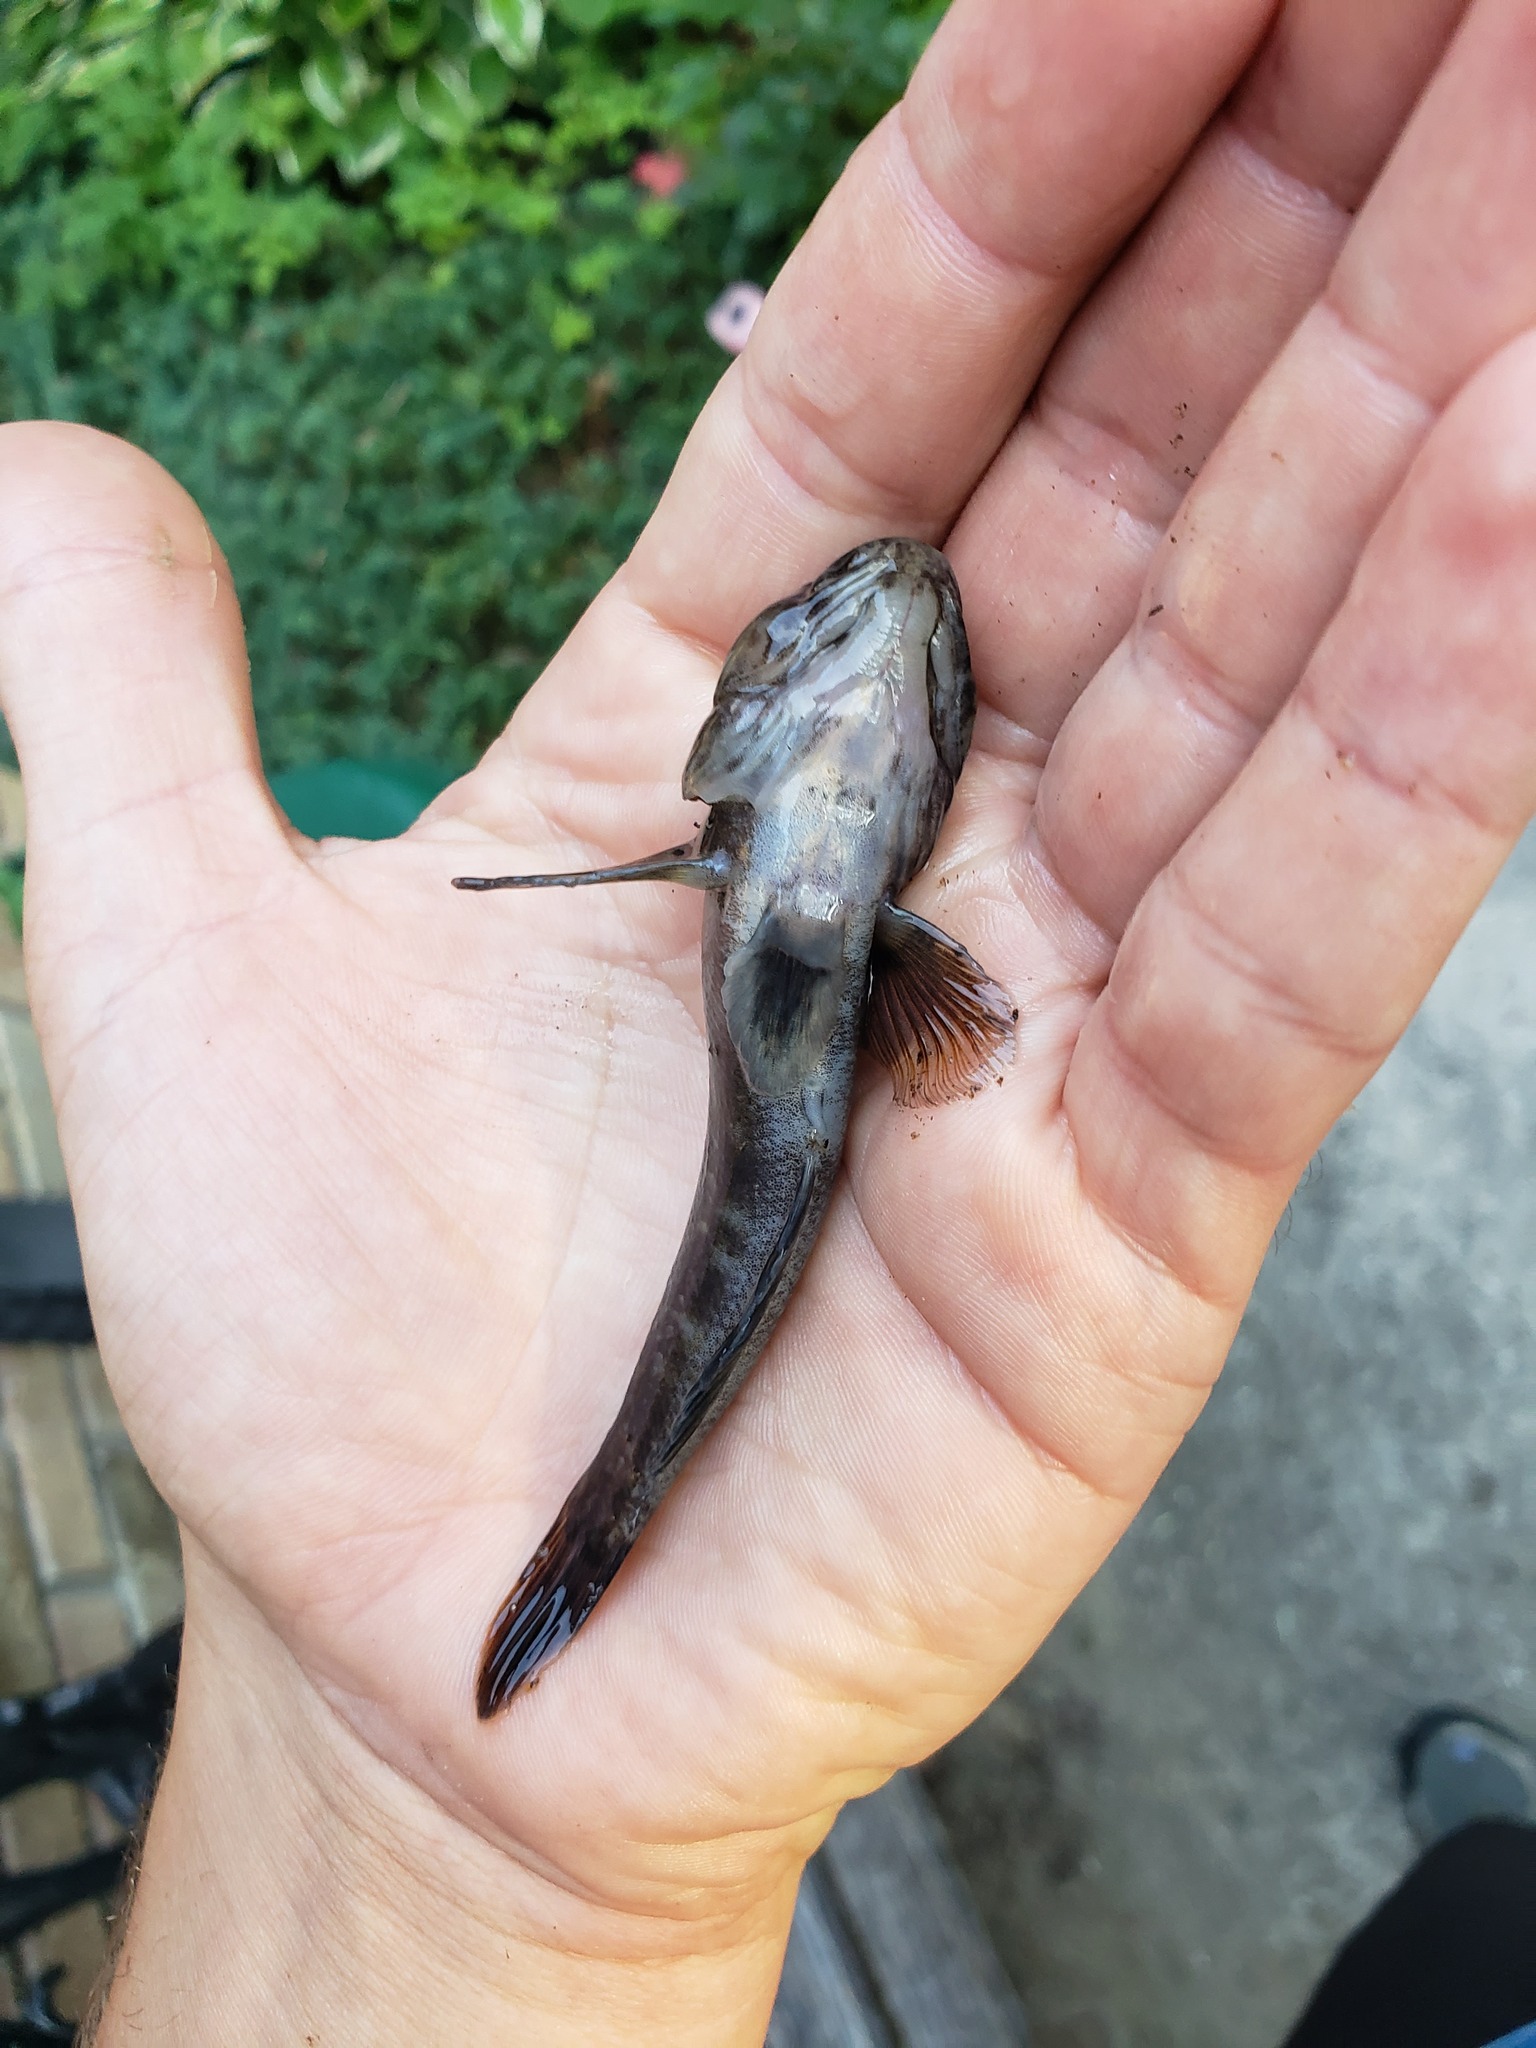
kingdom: Animalia
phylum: Chordata
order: Perciformes
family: Gobiidae
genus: Neogobius
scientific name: Neogobius melanostomus
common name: Round goby
